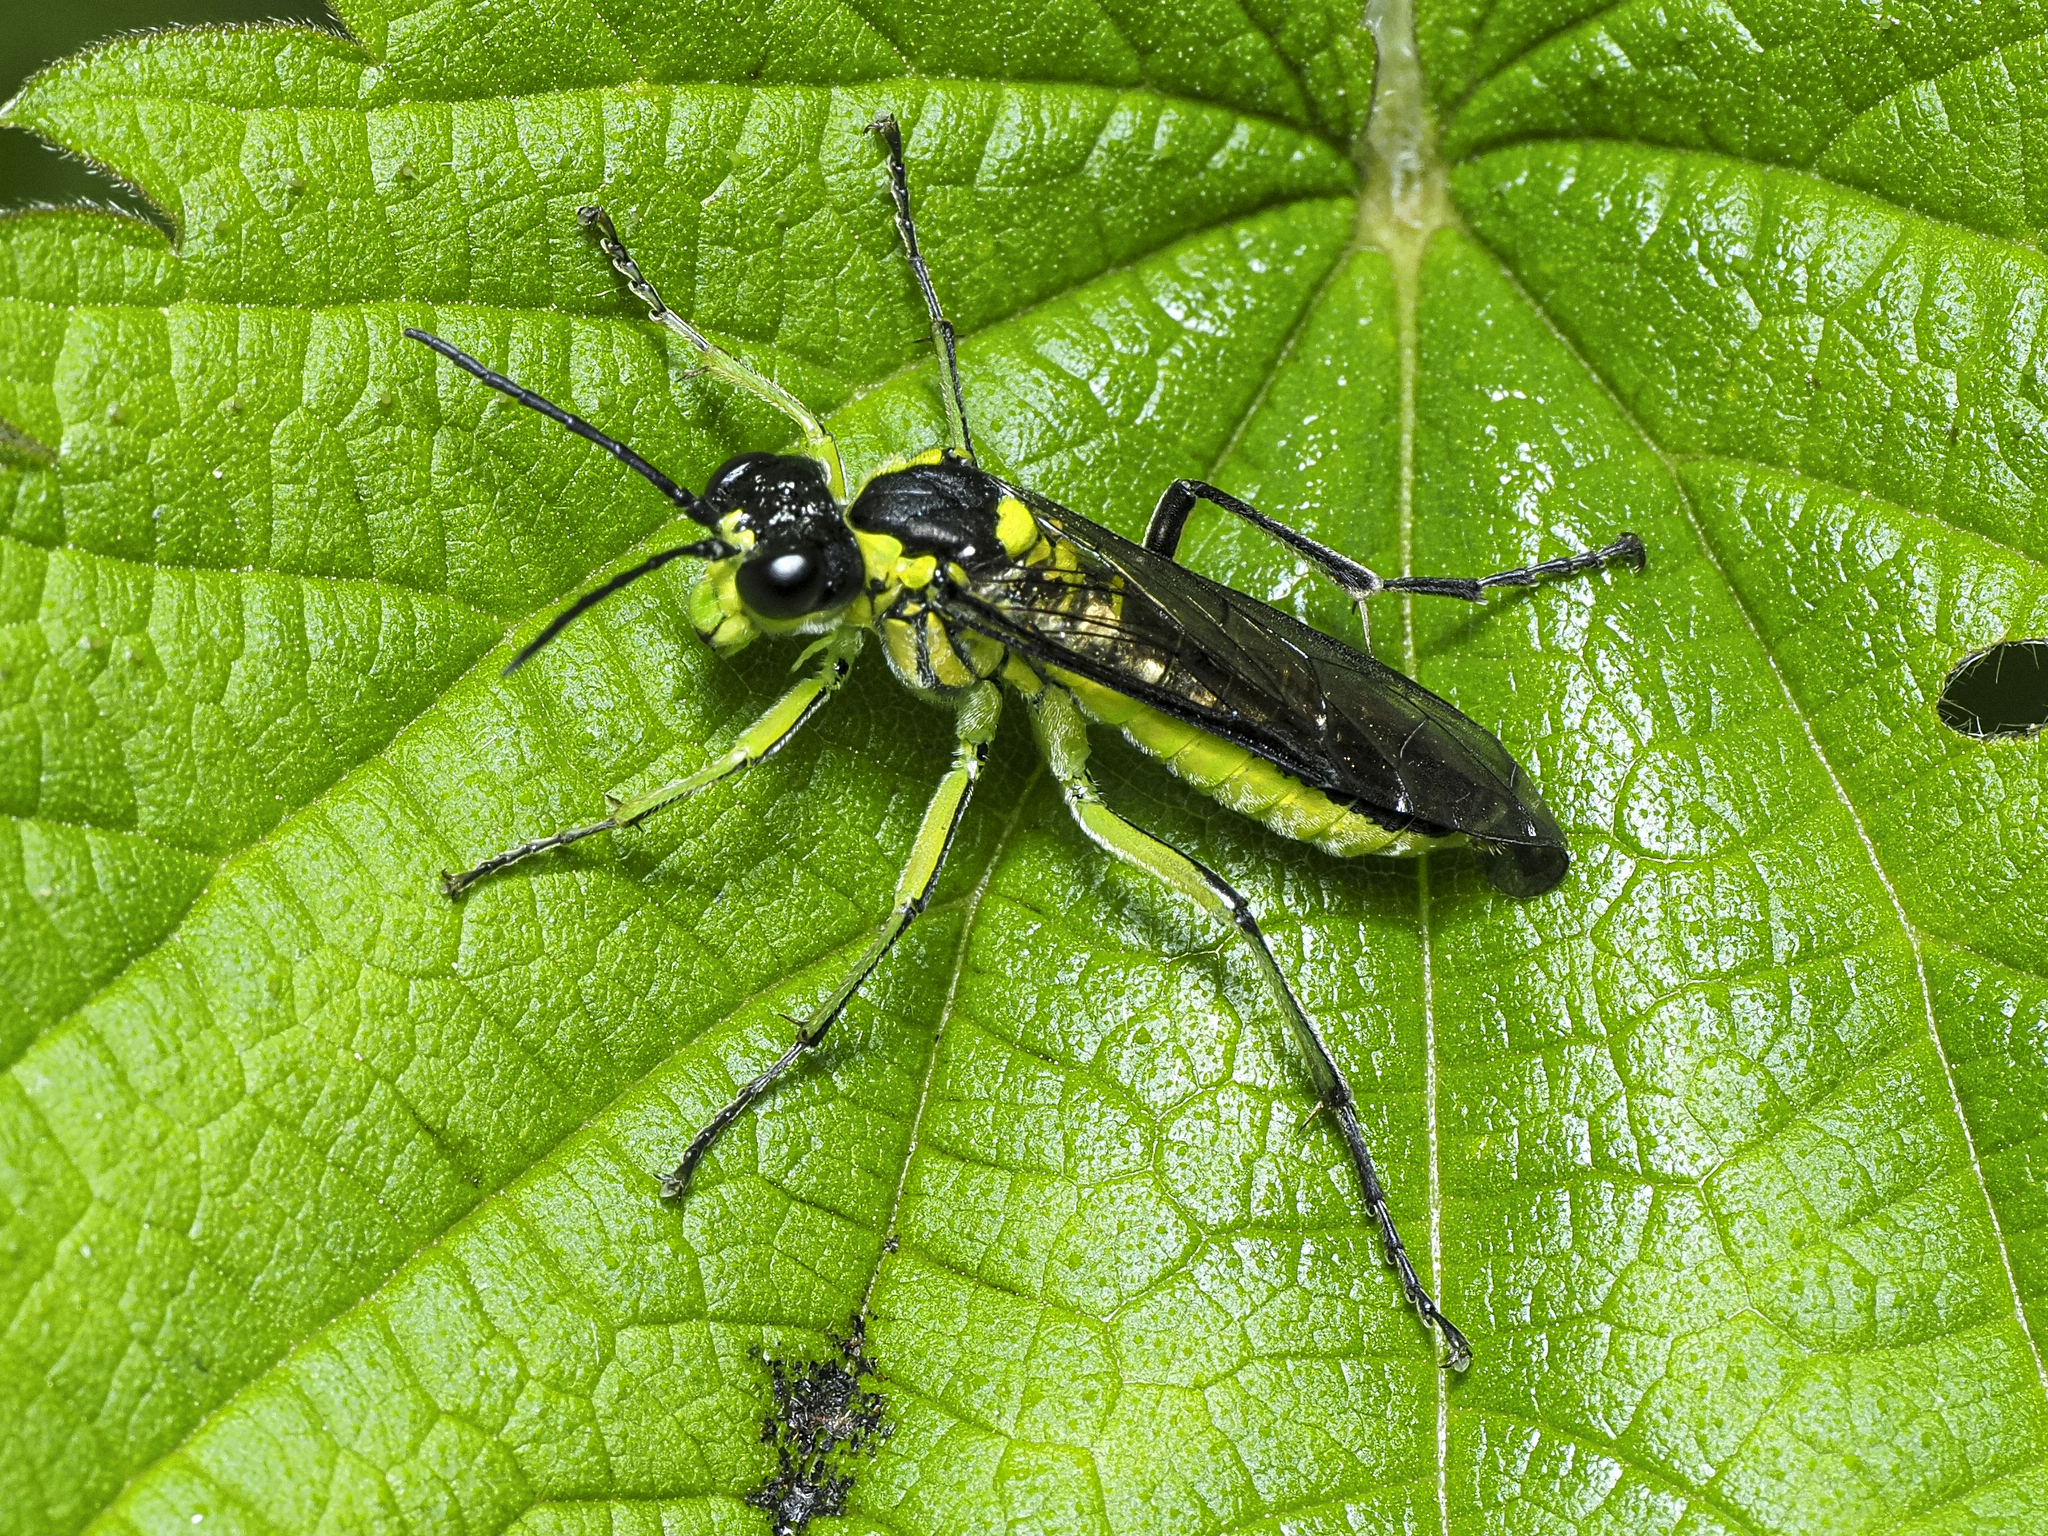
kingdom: Animalia
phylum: Arthropoda
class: Insecta
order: Hymenoptera
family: Tenthredinidae
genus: Tenthredo
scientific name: Tenthredo mesomela
